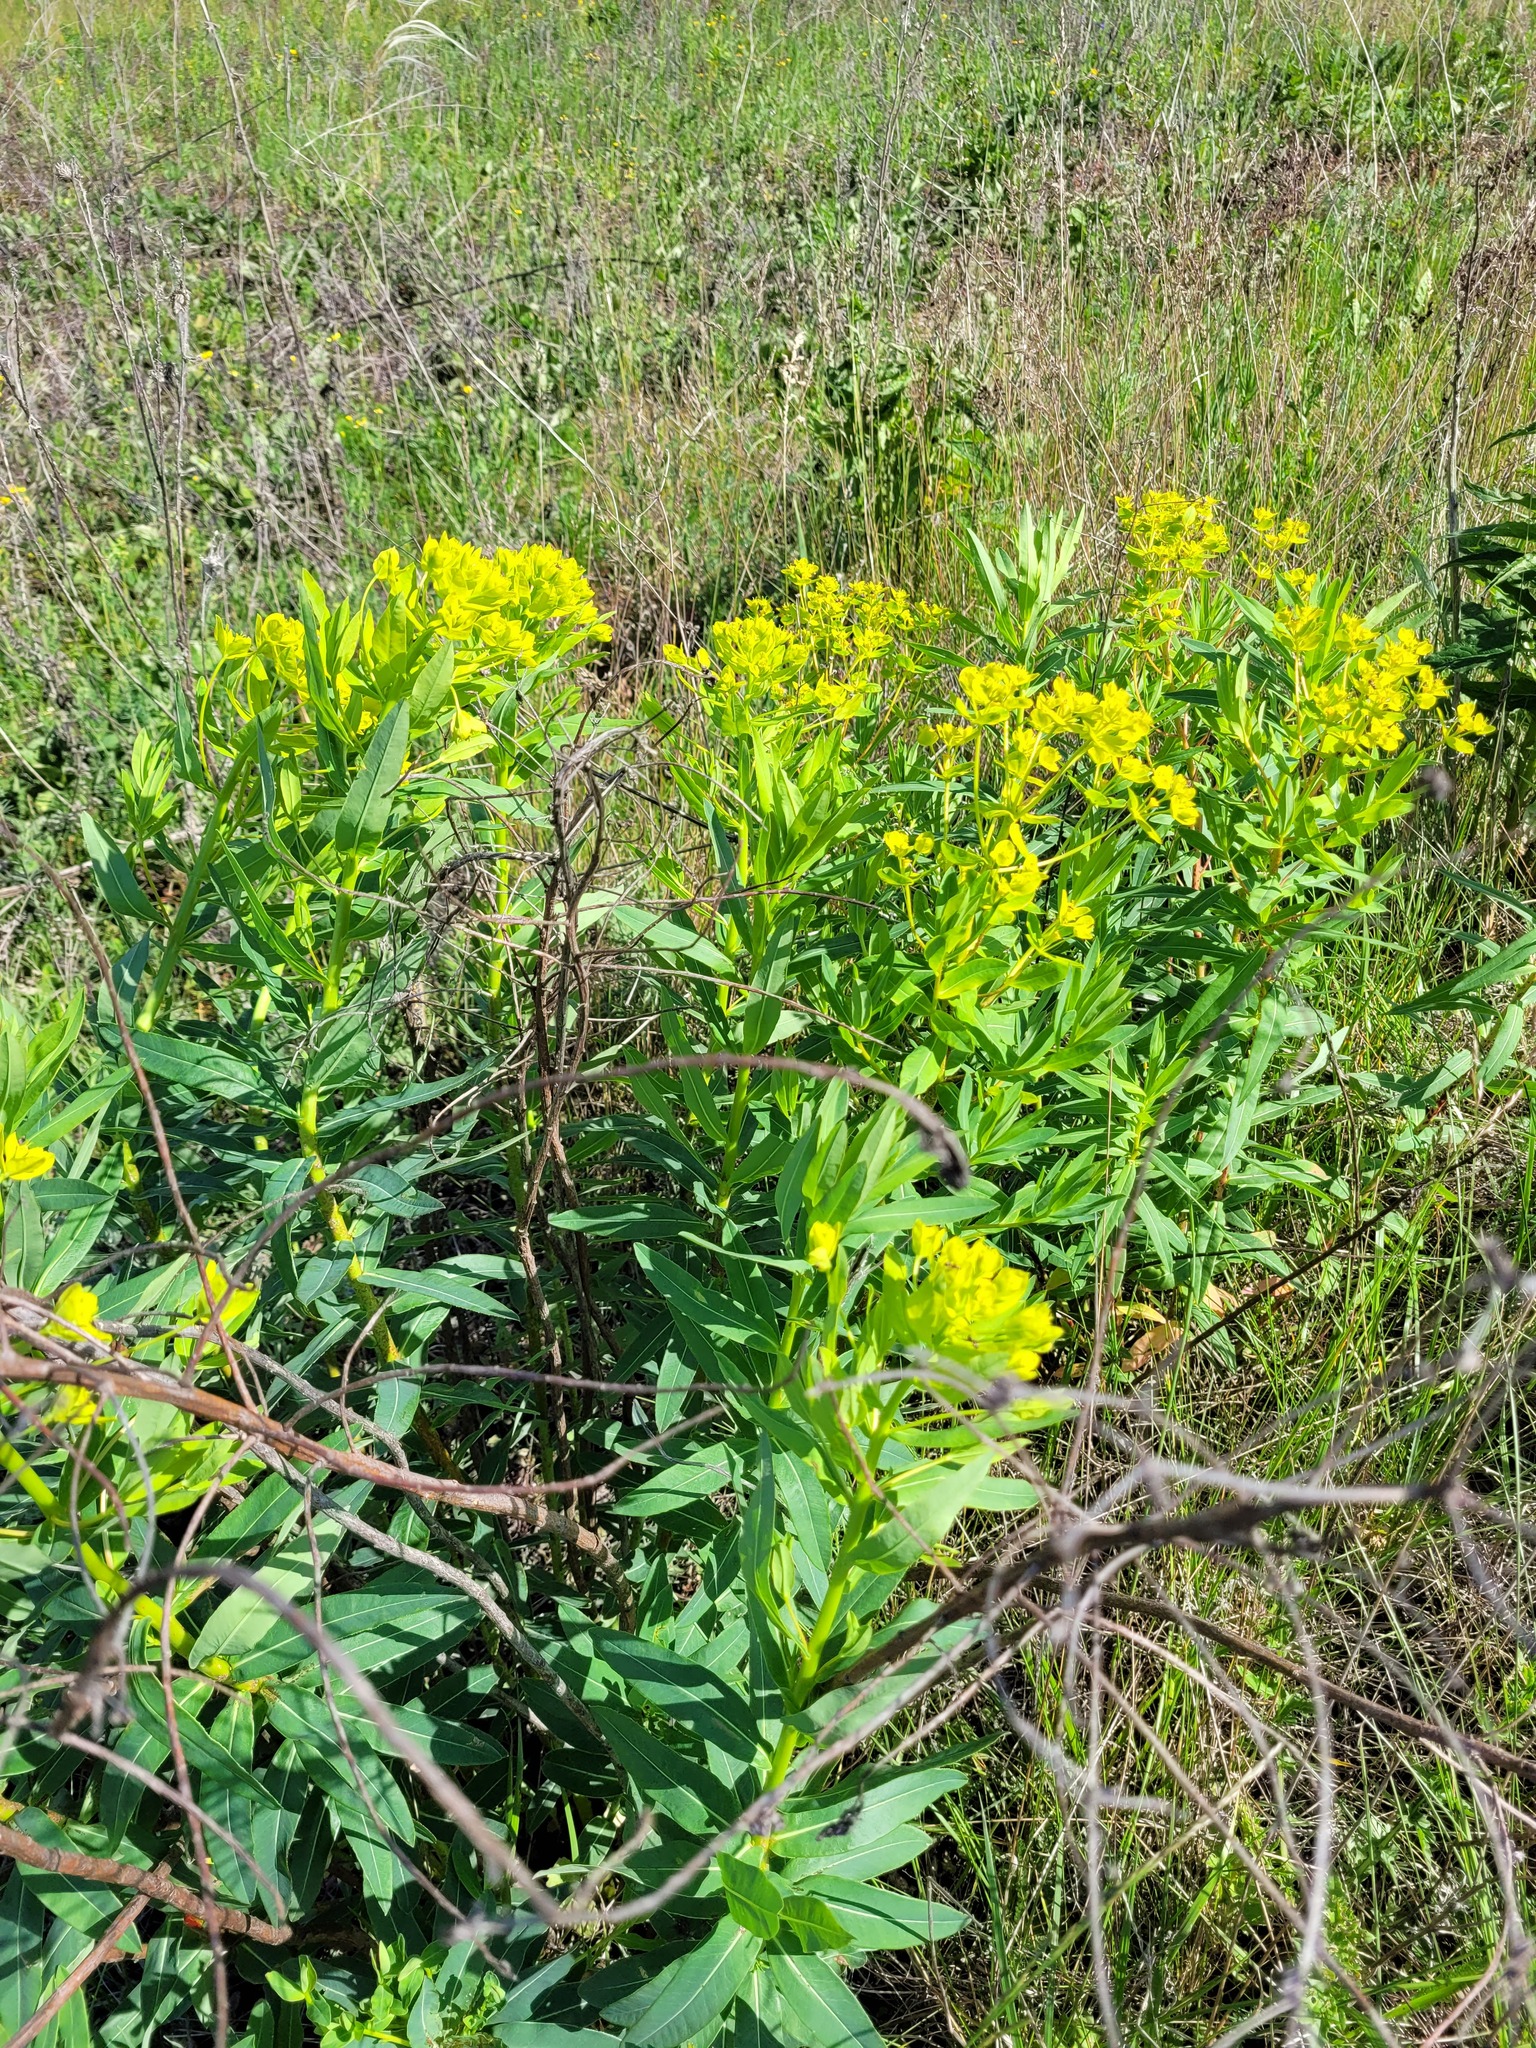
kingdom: Plantae
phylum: Tracheophyta
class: Magnoliopsida
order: Malpighiales
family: Euphorbiaceae
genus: Euphorbia
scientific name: Euphorbia semivillosa
